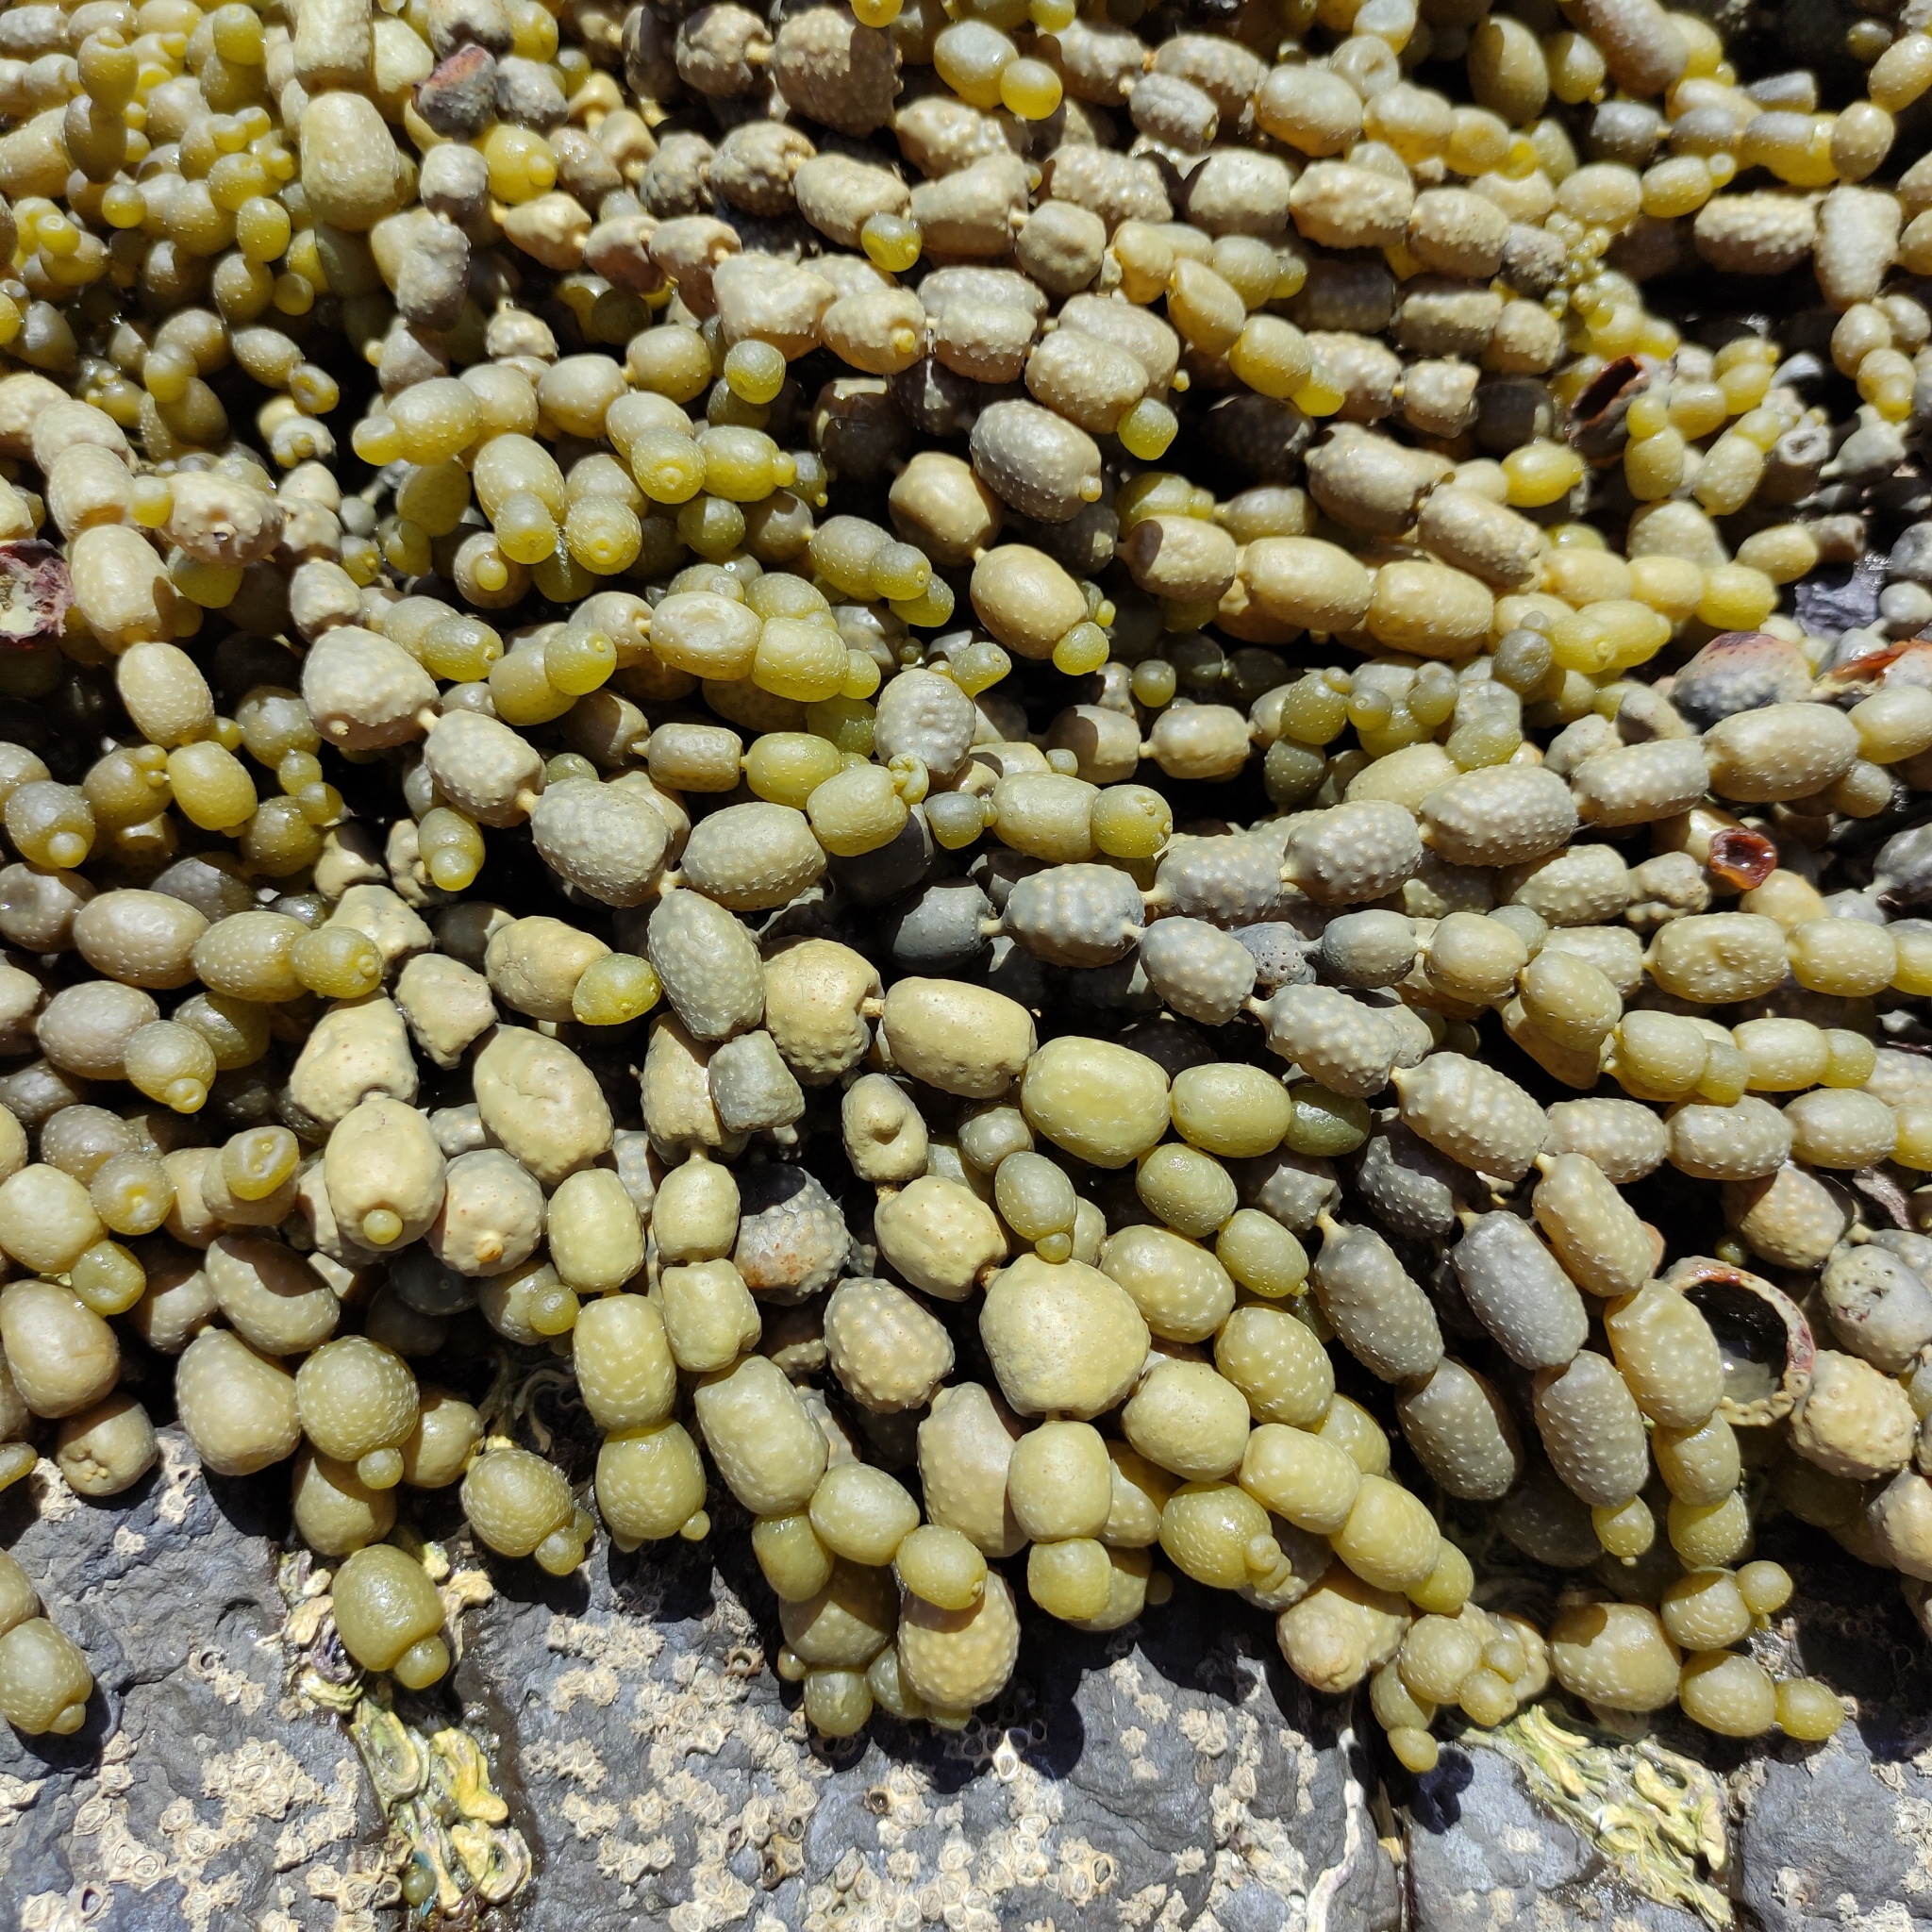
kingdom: Chromista
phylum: Ochrophyta
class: Phaeophyceae
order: Fucales
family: Hormosiraceae
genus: Hormosira
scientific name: Hormosira banksii
